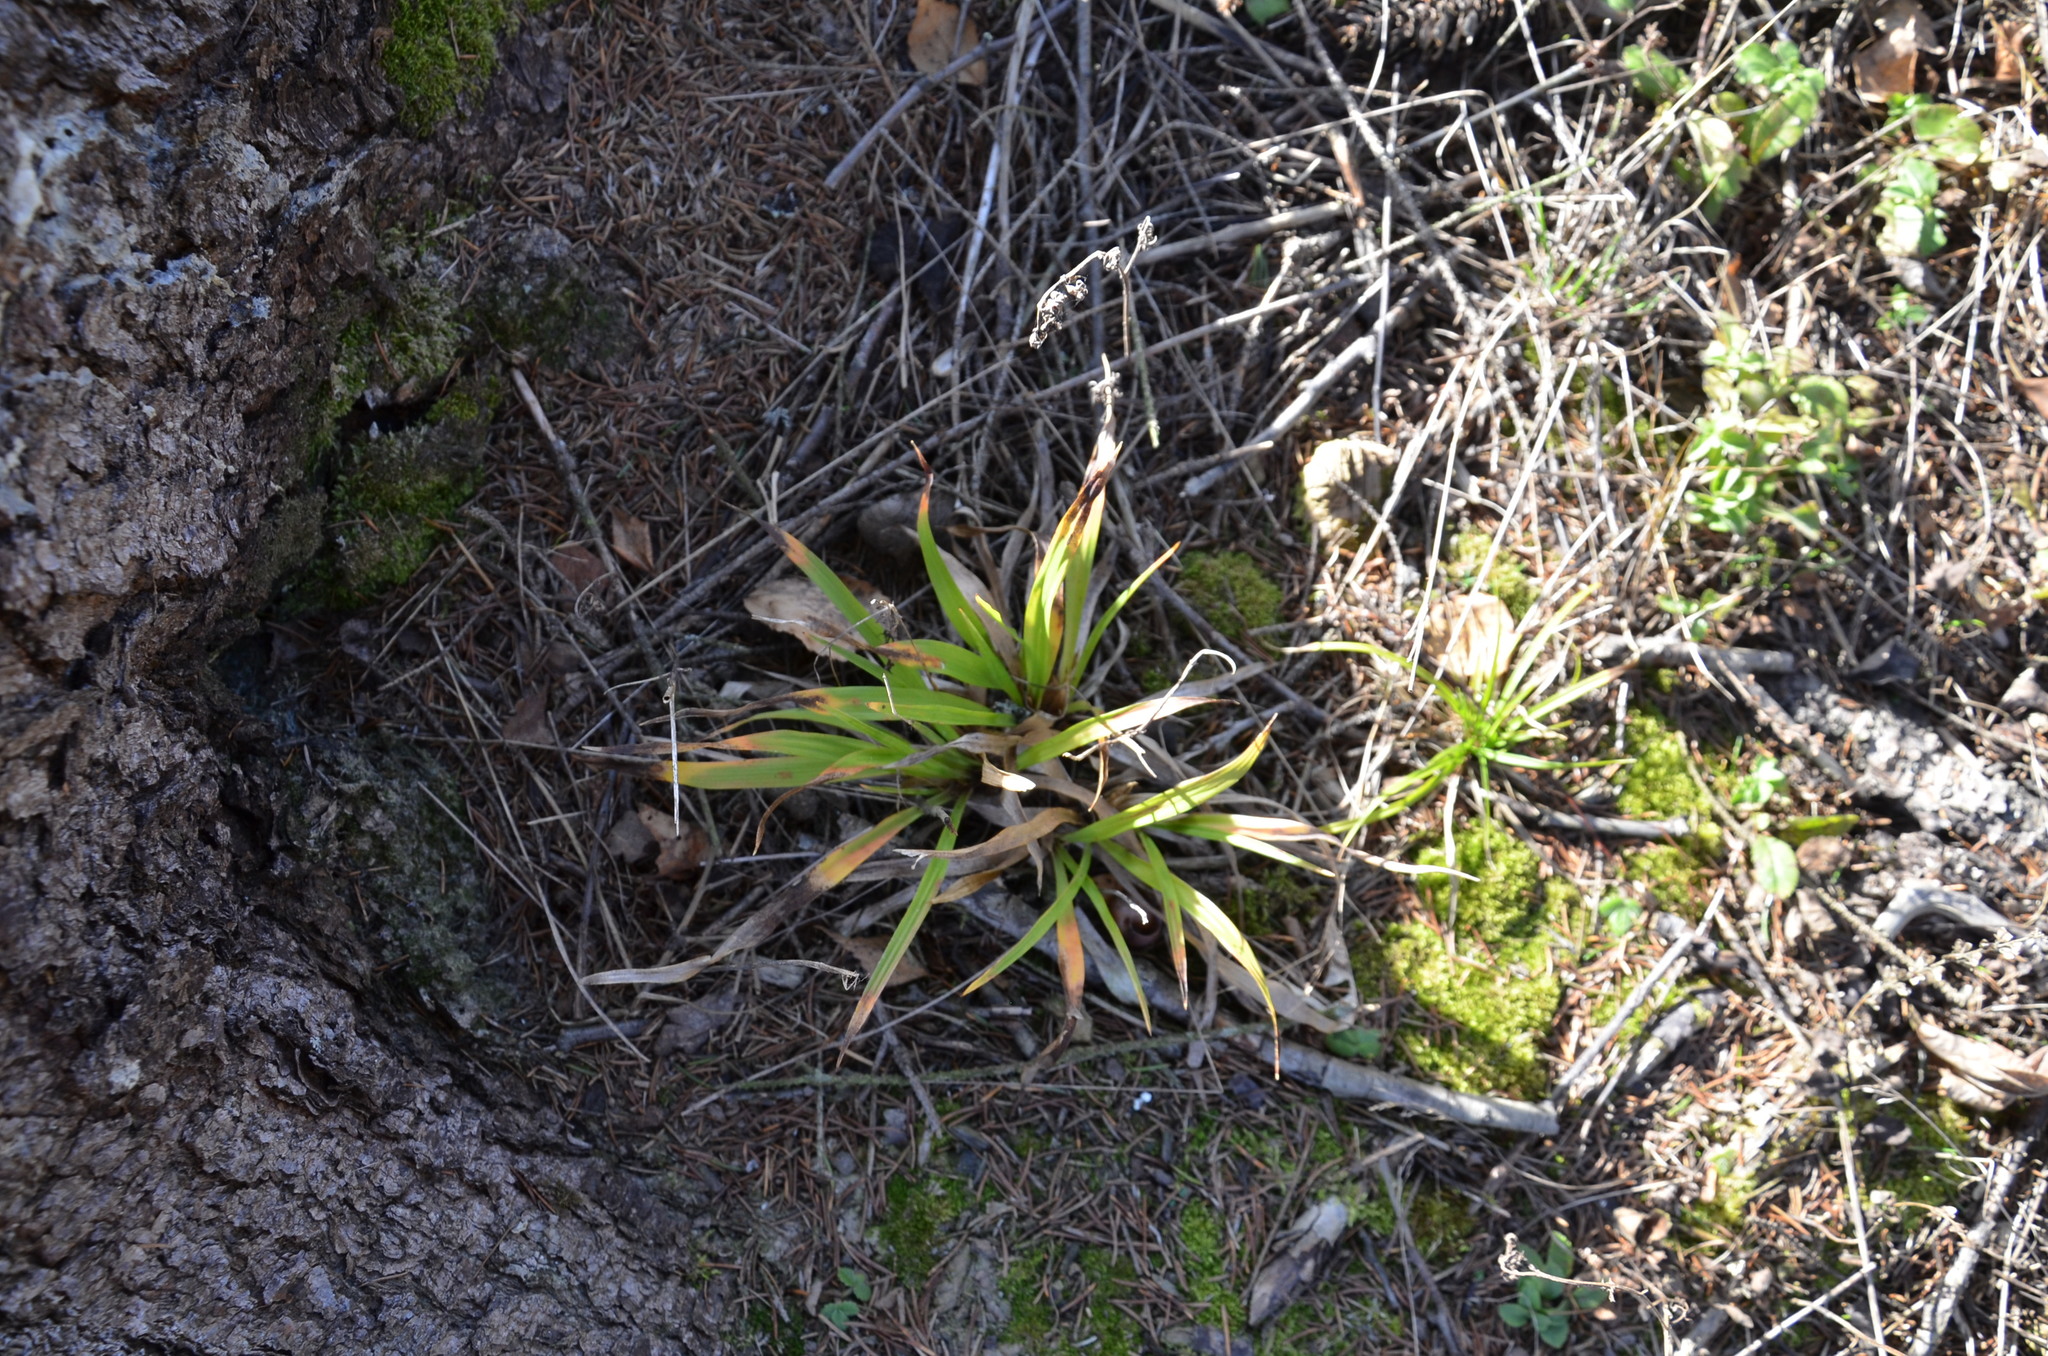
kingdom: Plantae
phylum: Tracheophyta
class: Liliopsida
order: Poales
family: Juncaceae
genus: Luzula
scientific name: Luzula pilosa
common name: Hairy wood-rush
